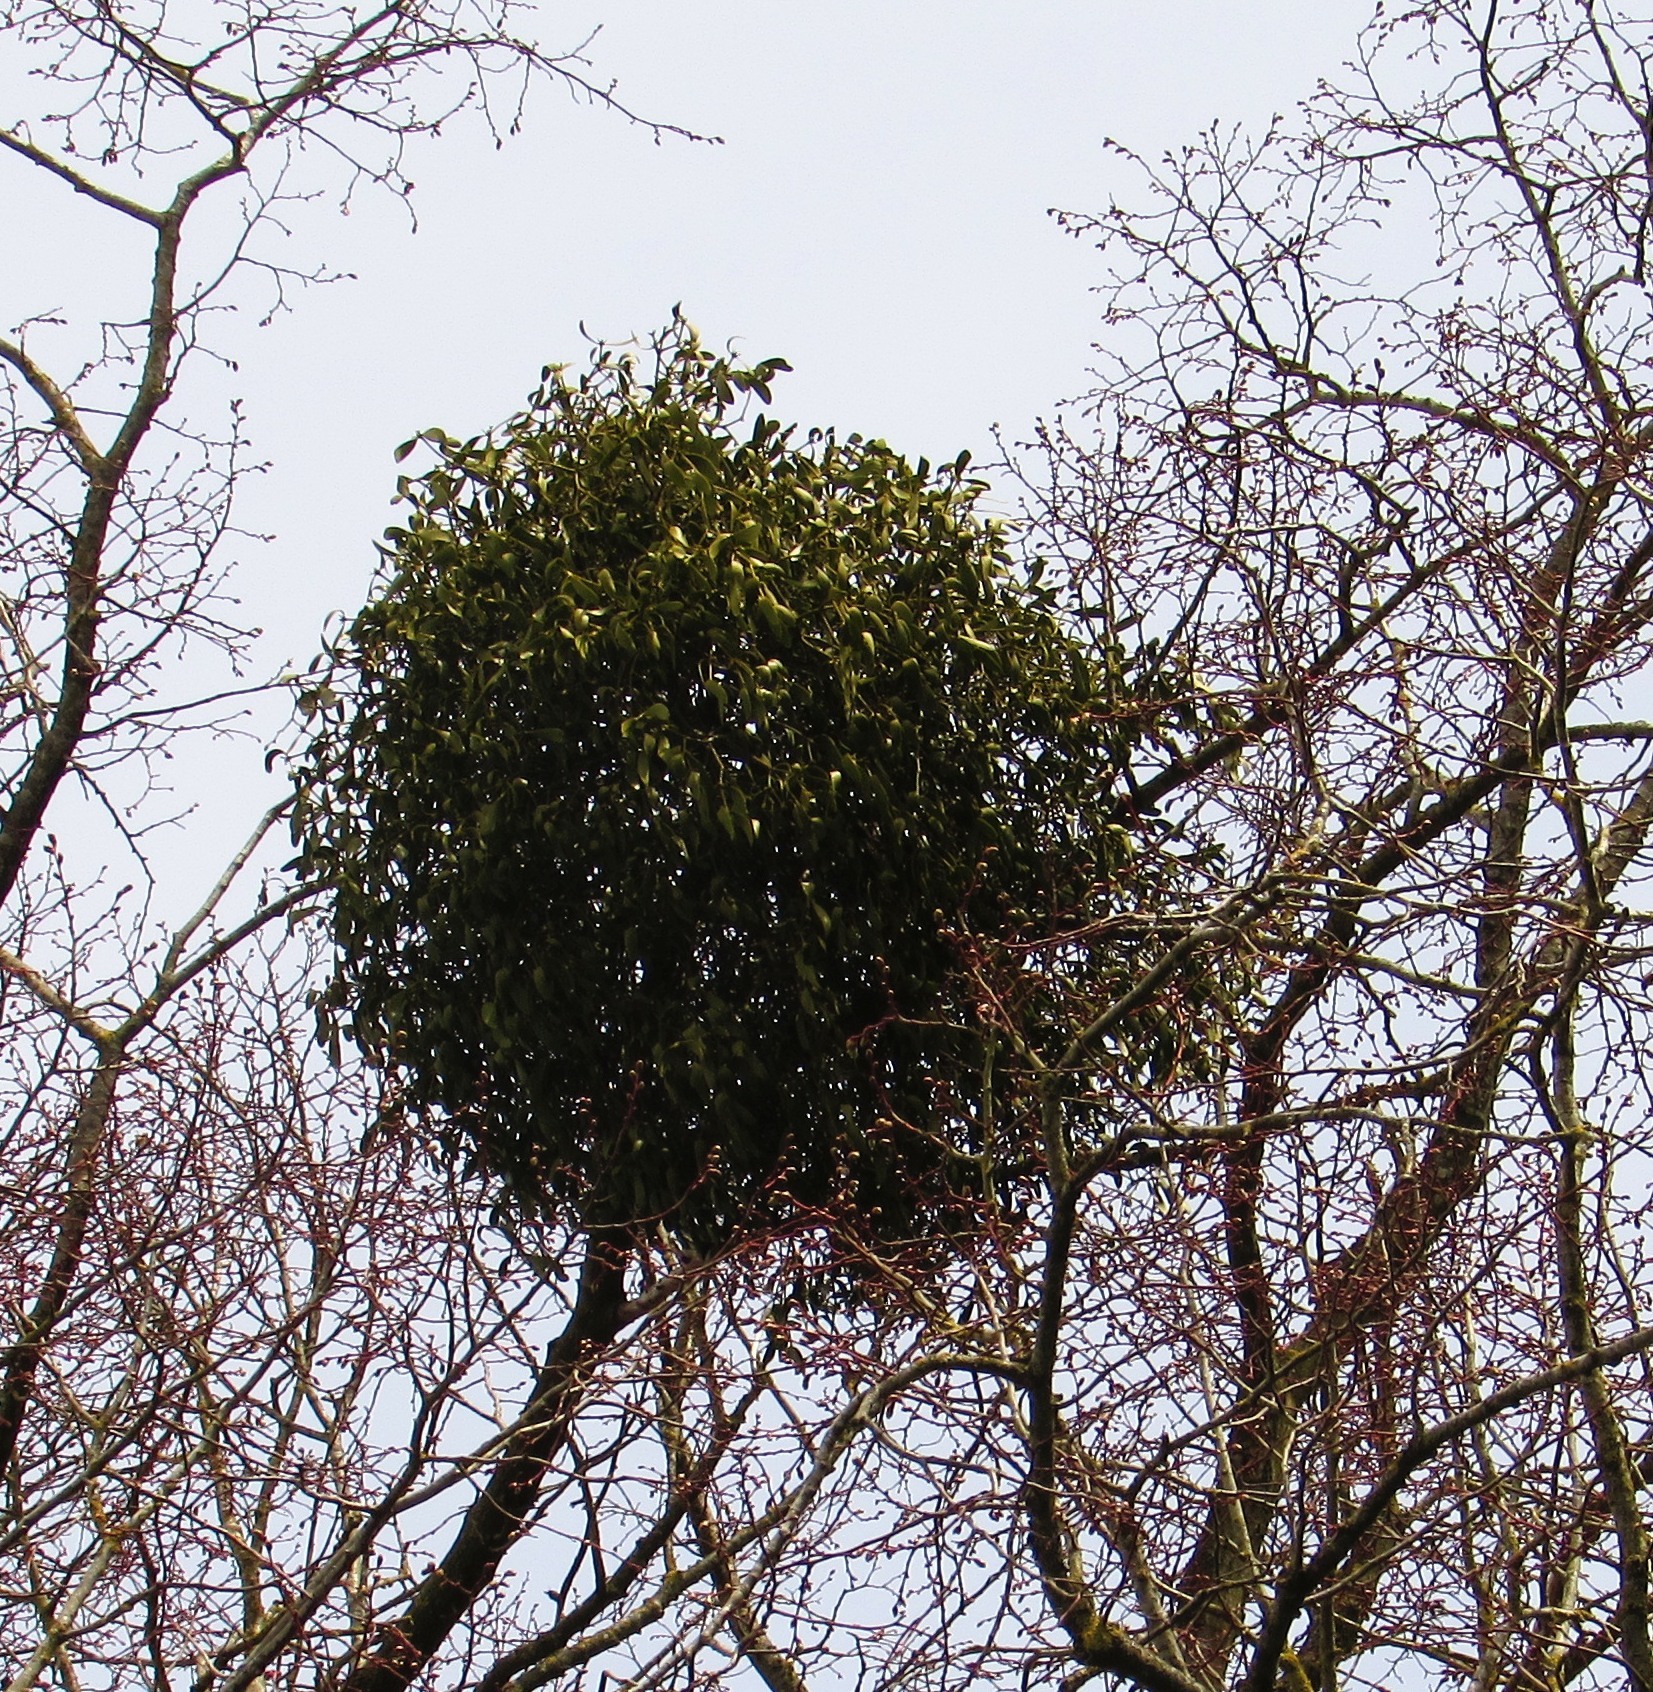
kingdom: Plantae
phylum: Tracheophyta
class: Magnoliopsida
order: Santalales
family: Viscaceae
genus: Viscum
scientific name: Viscum album
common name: Mistletoe
